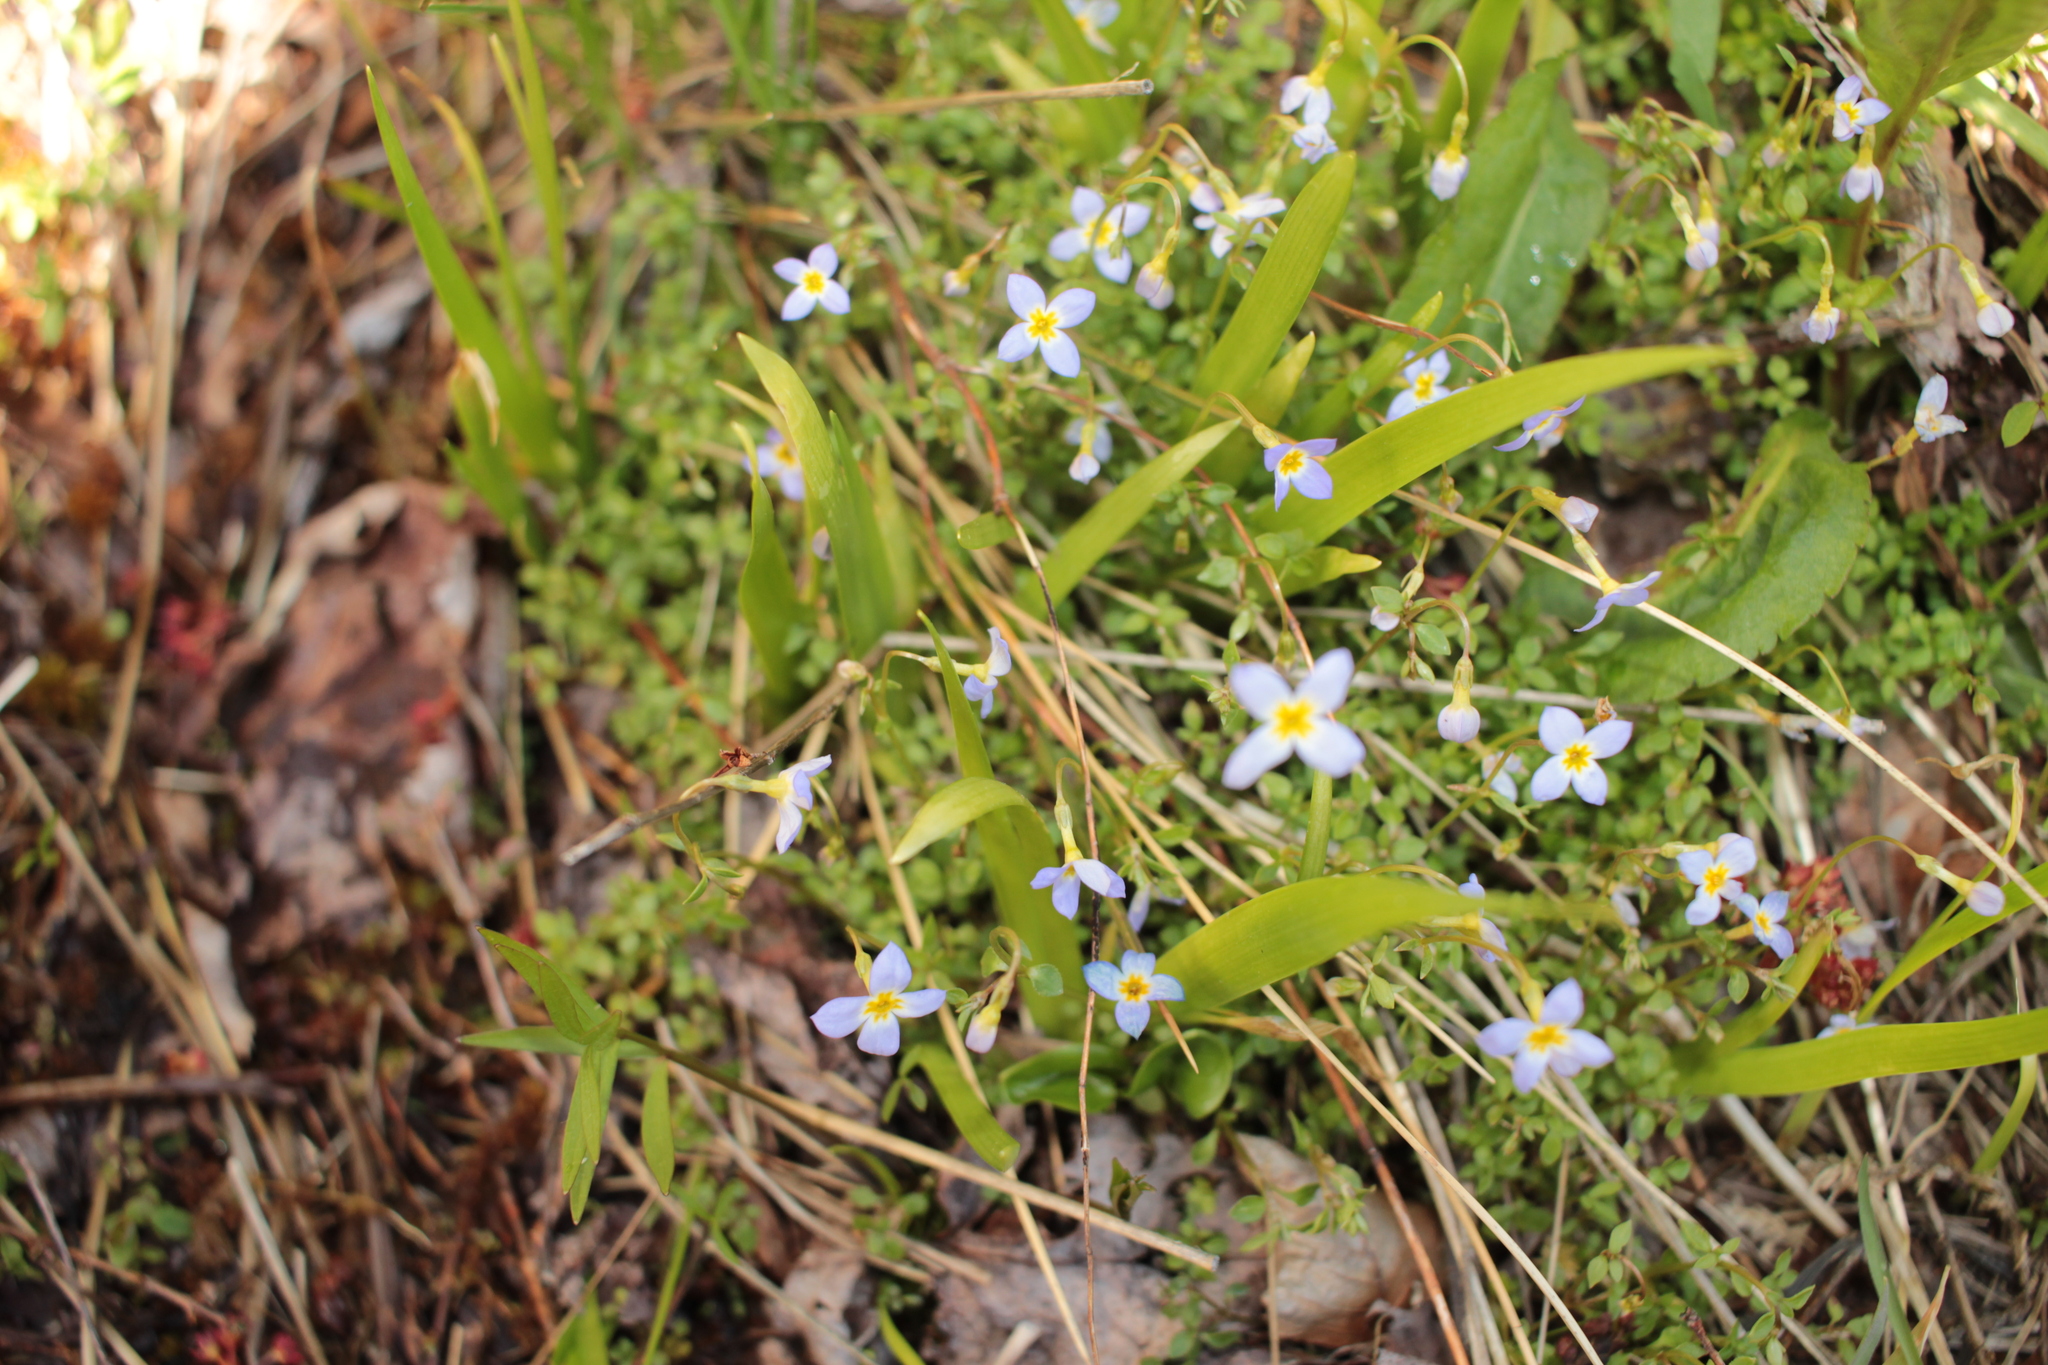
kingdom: Plantae
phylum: Tracheophyta
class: Magnoliopsida
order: Gentianales
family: Rubiaceae
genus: Houstonia
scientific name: Houstonia serpyllifolia
